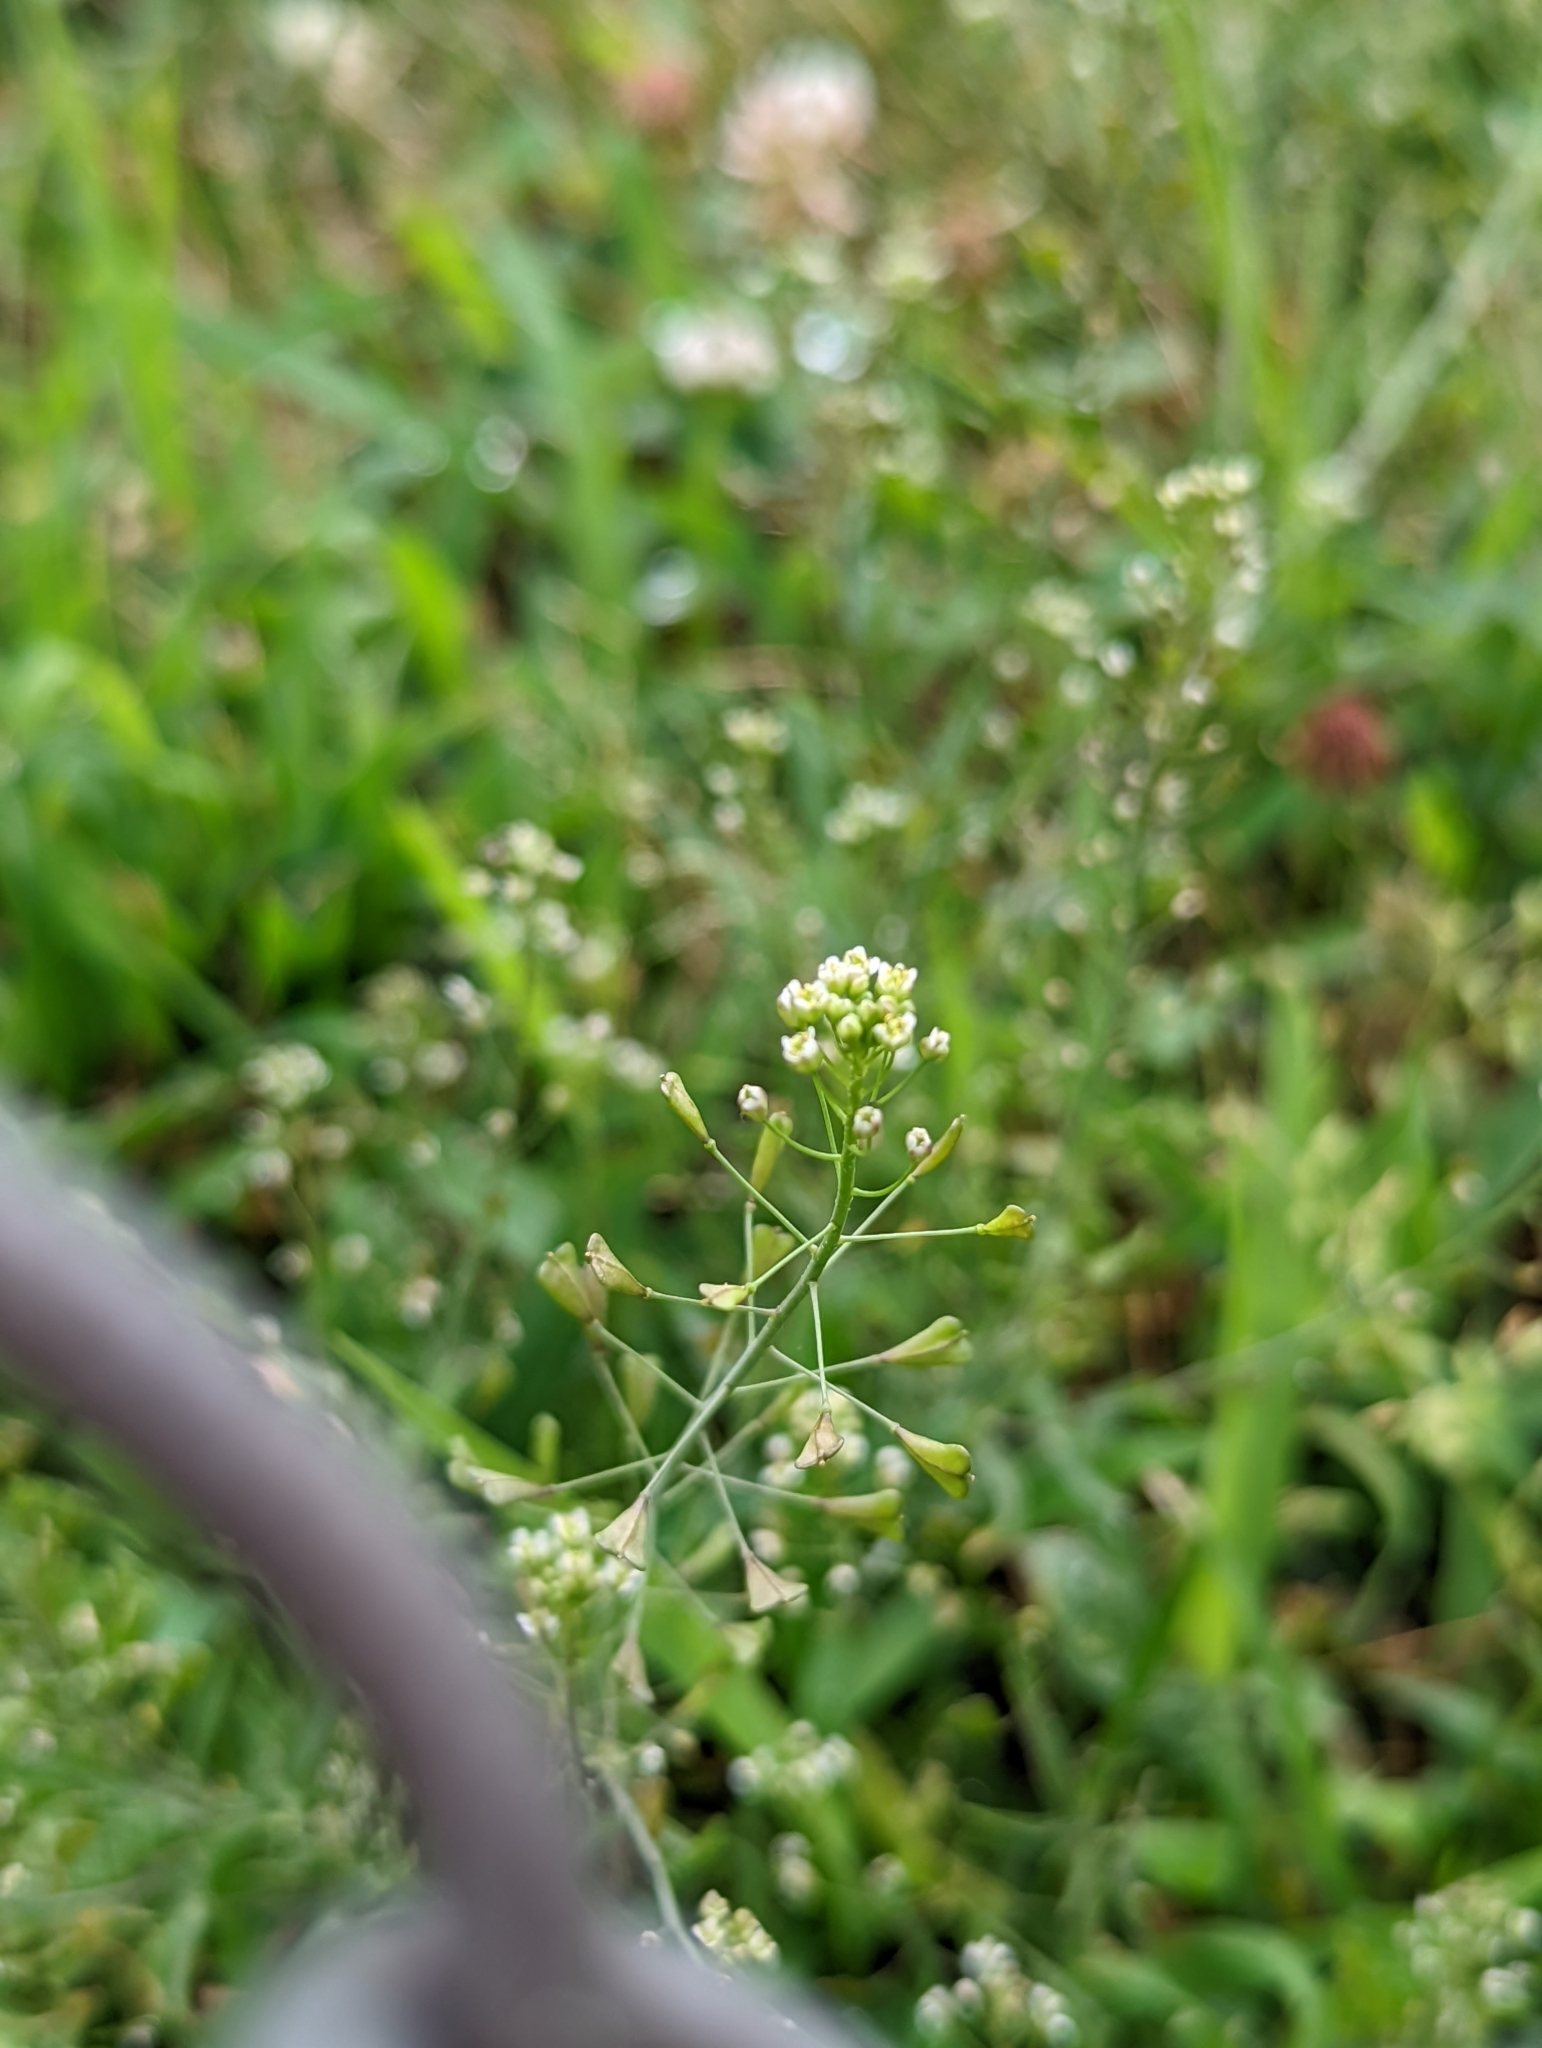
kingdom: Plantae
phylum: Tracheophyta
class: Magnoliopsida
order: Brassicales
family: Brassicaceae
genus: Capsella
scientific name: Capsella bursa-pastoris
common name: Shepherd's purse
